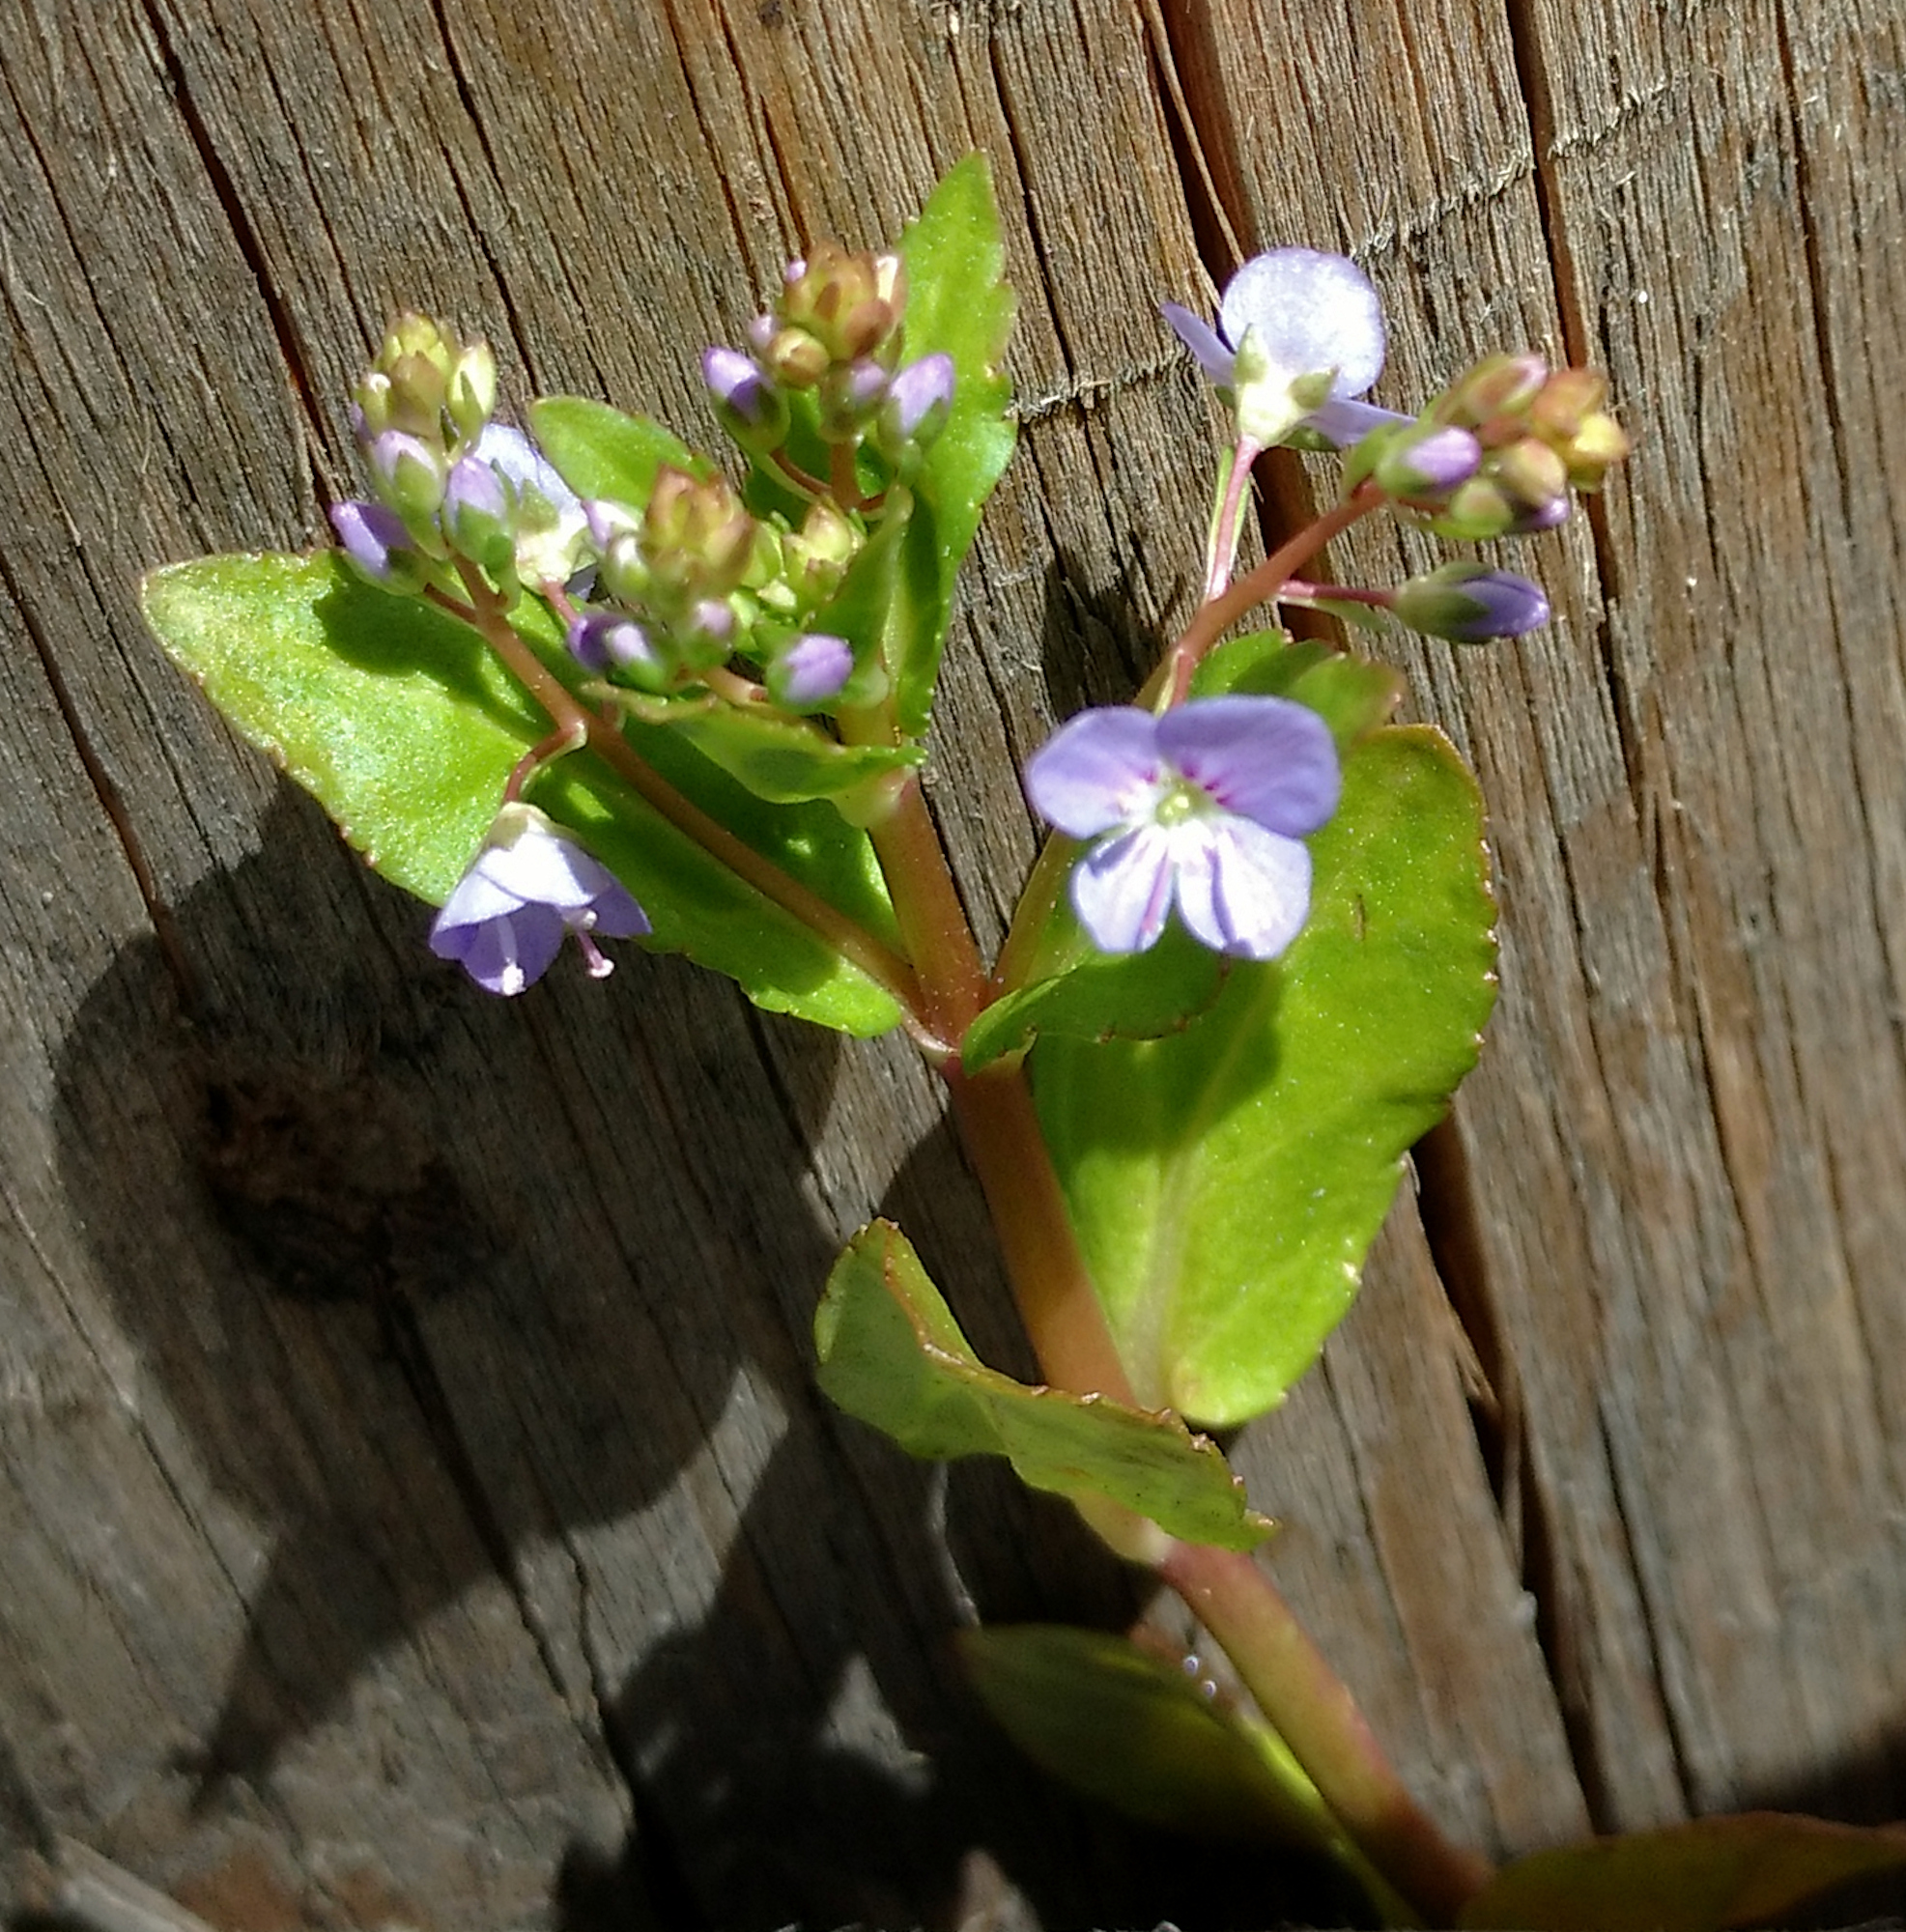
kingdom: Plantae
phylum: Tracheophyta
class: Magnoliopsida
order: Lamiales
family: Plantaginaceae
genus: Veronica
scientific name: Veronica americana
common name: American brooklime
